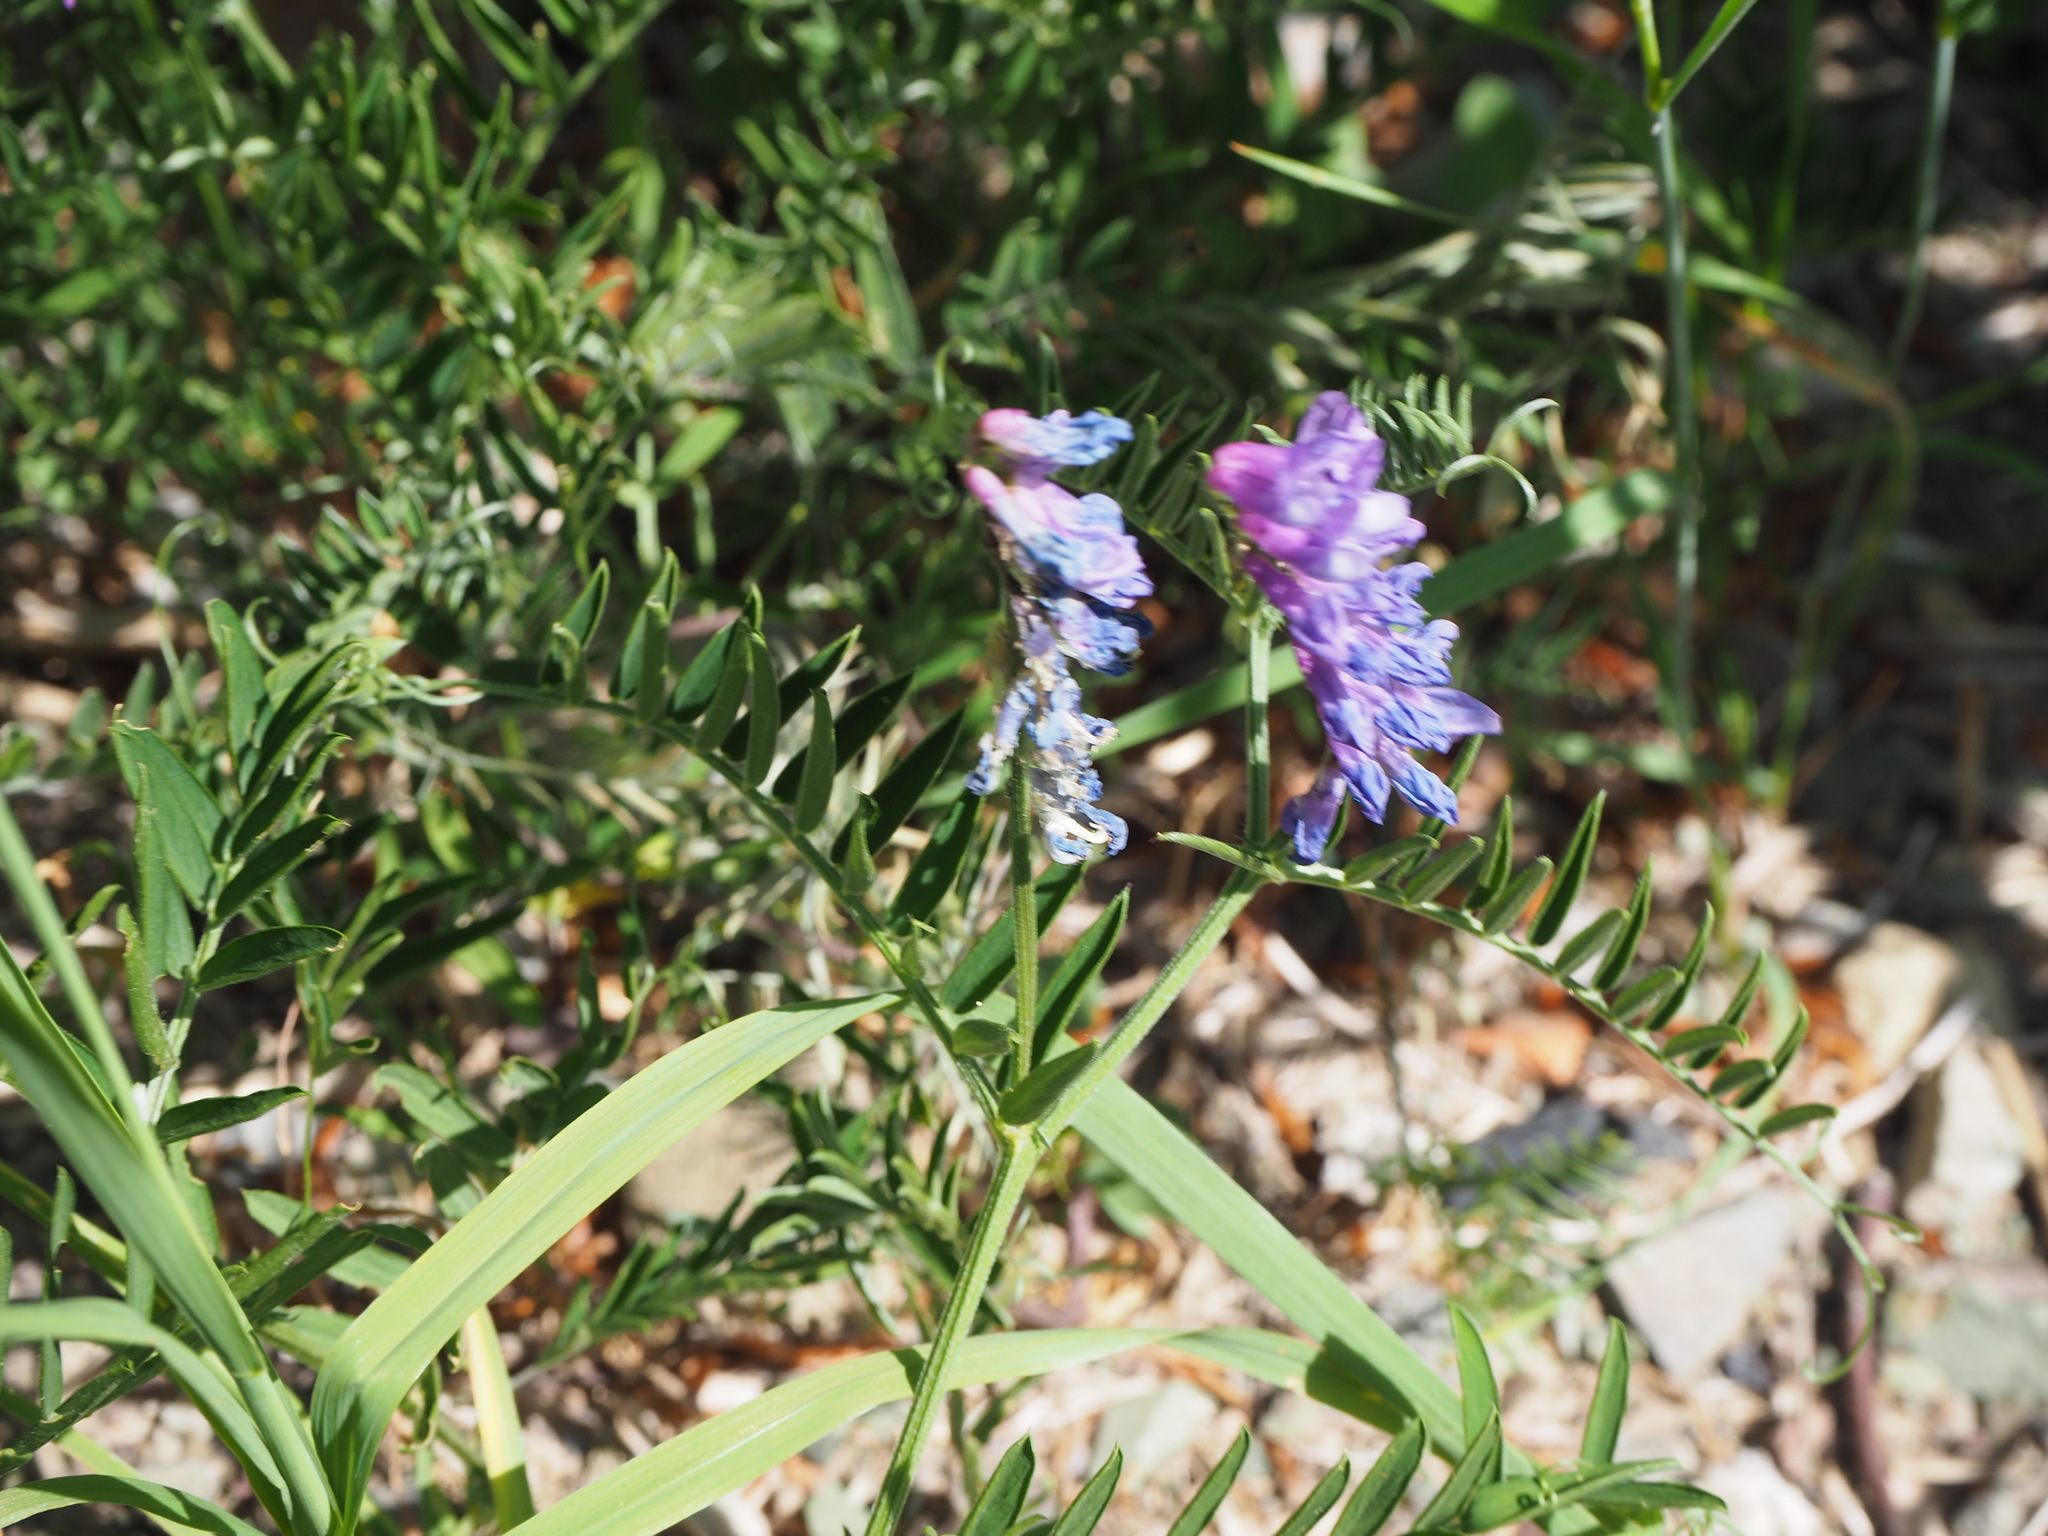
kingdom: Plantae
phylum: Tracheophyta
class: Magnoliopsida
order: Fabales
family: Fabaceae
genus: Vicia
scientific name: Vicia cracca
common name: Bird vetch
